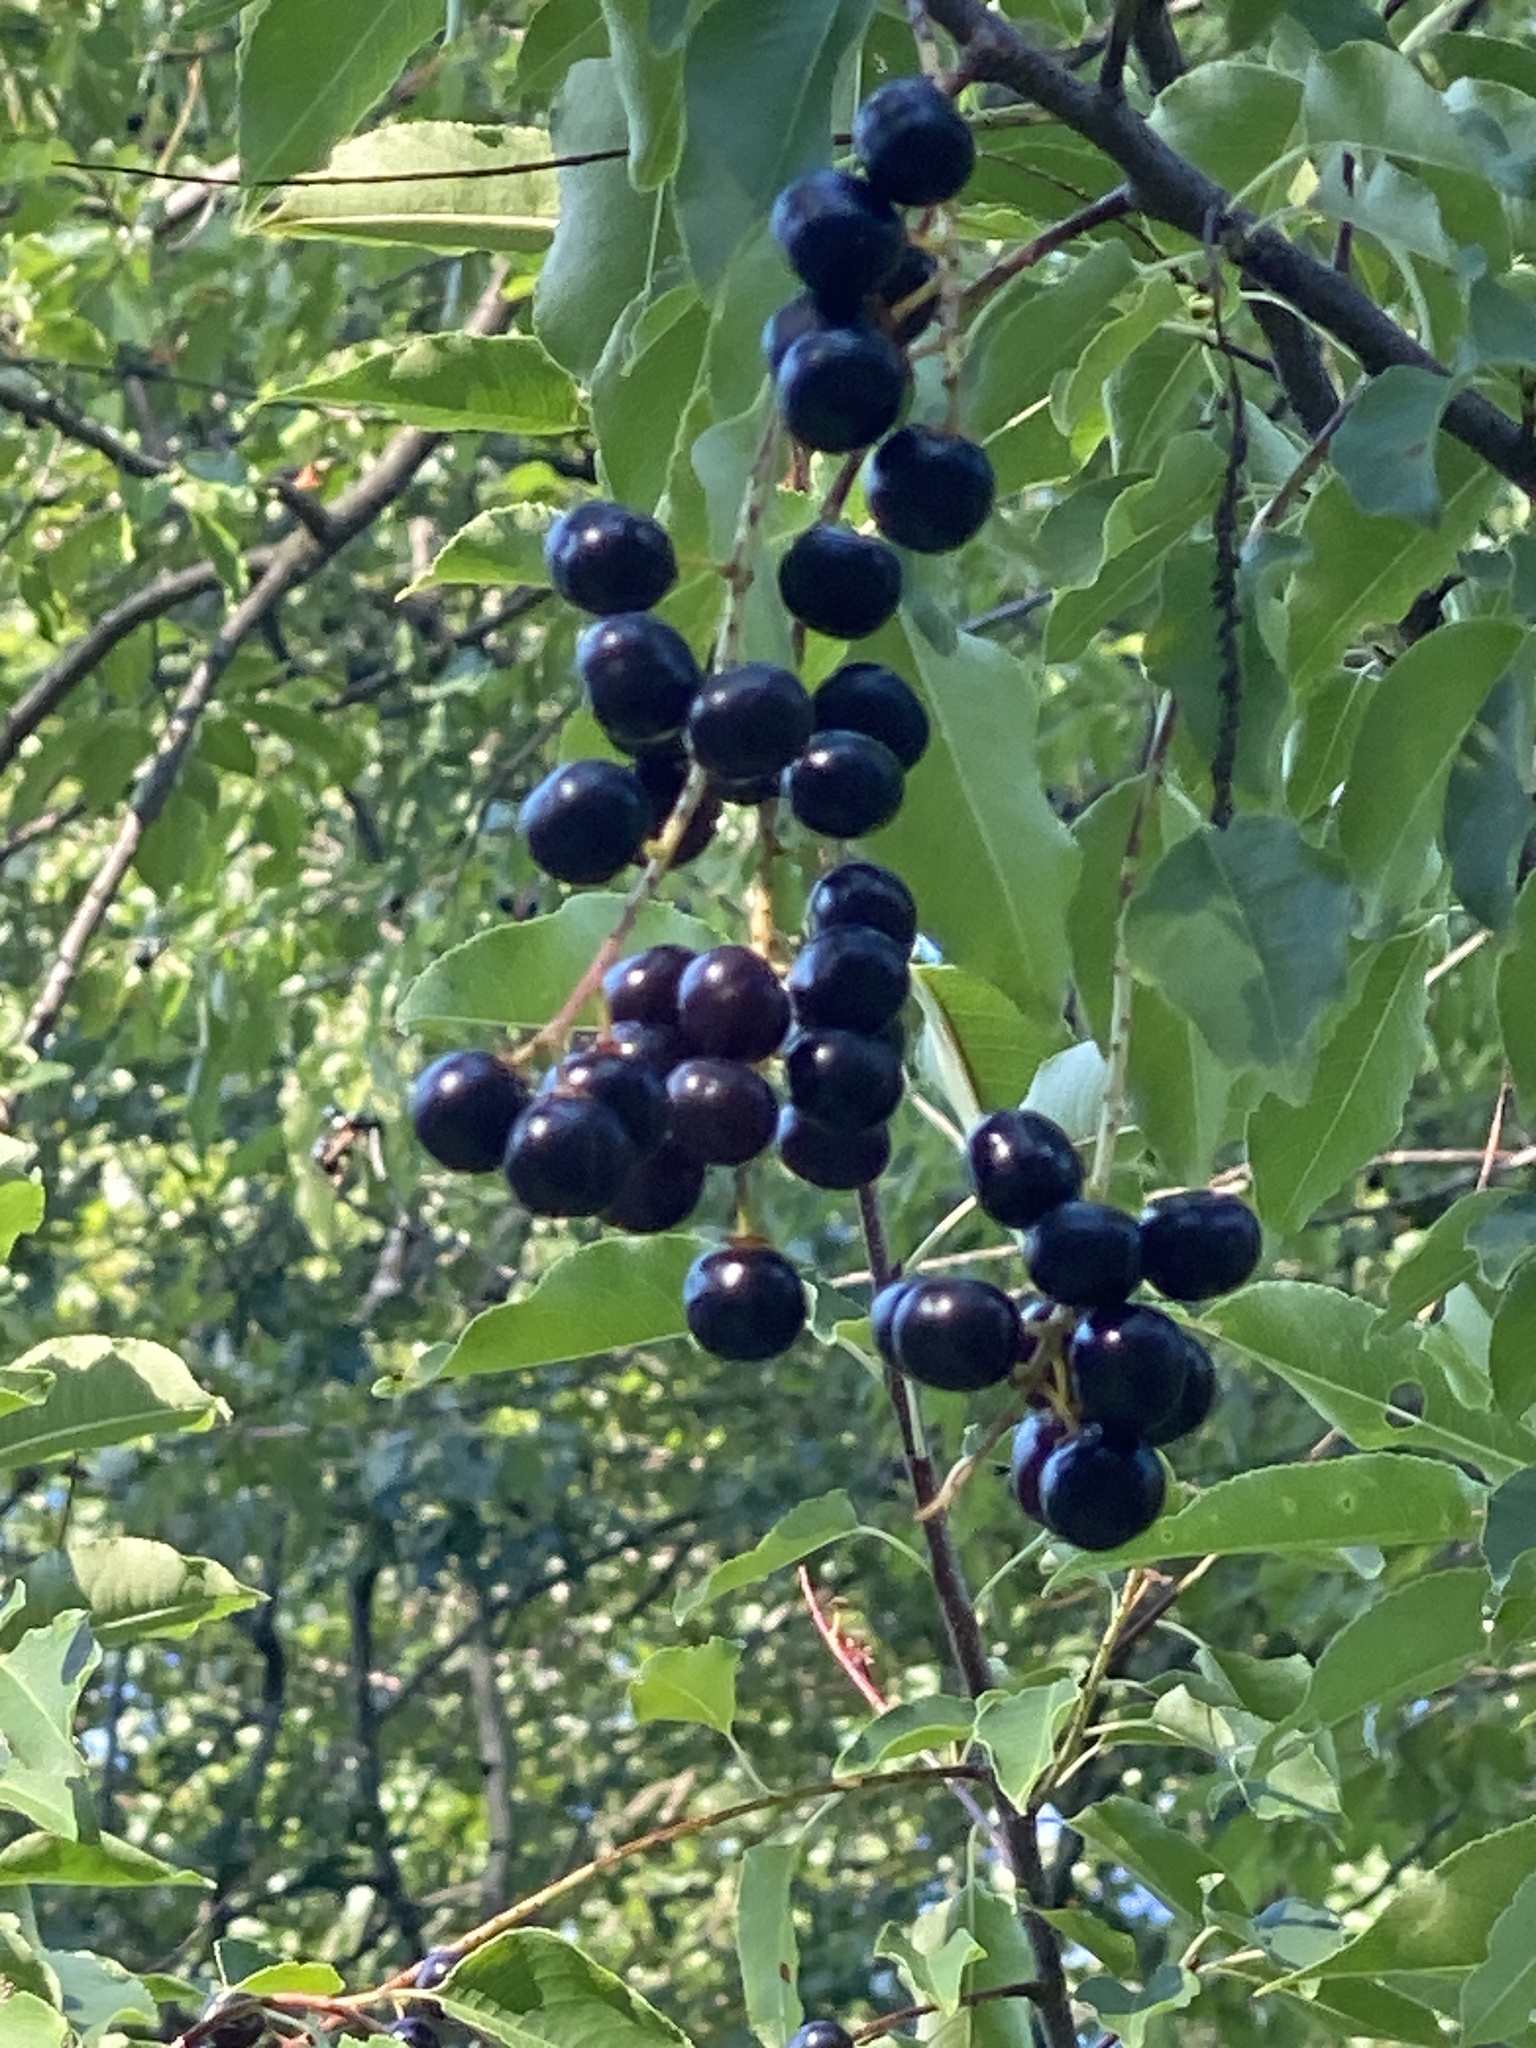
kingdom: Plantae
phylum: Tracheophyta
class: Magnoliopsida
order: Rosales
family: Rosaceae
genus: Prunus
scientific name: Prunus serotina
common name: Black cherry
